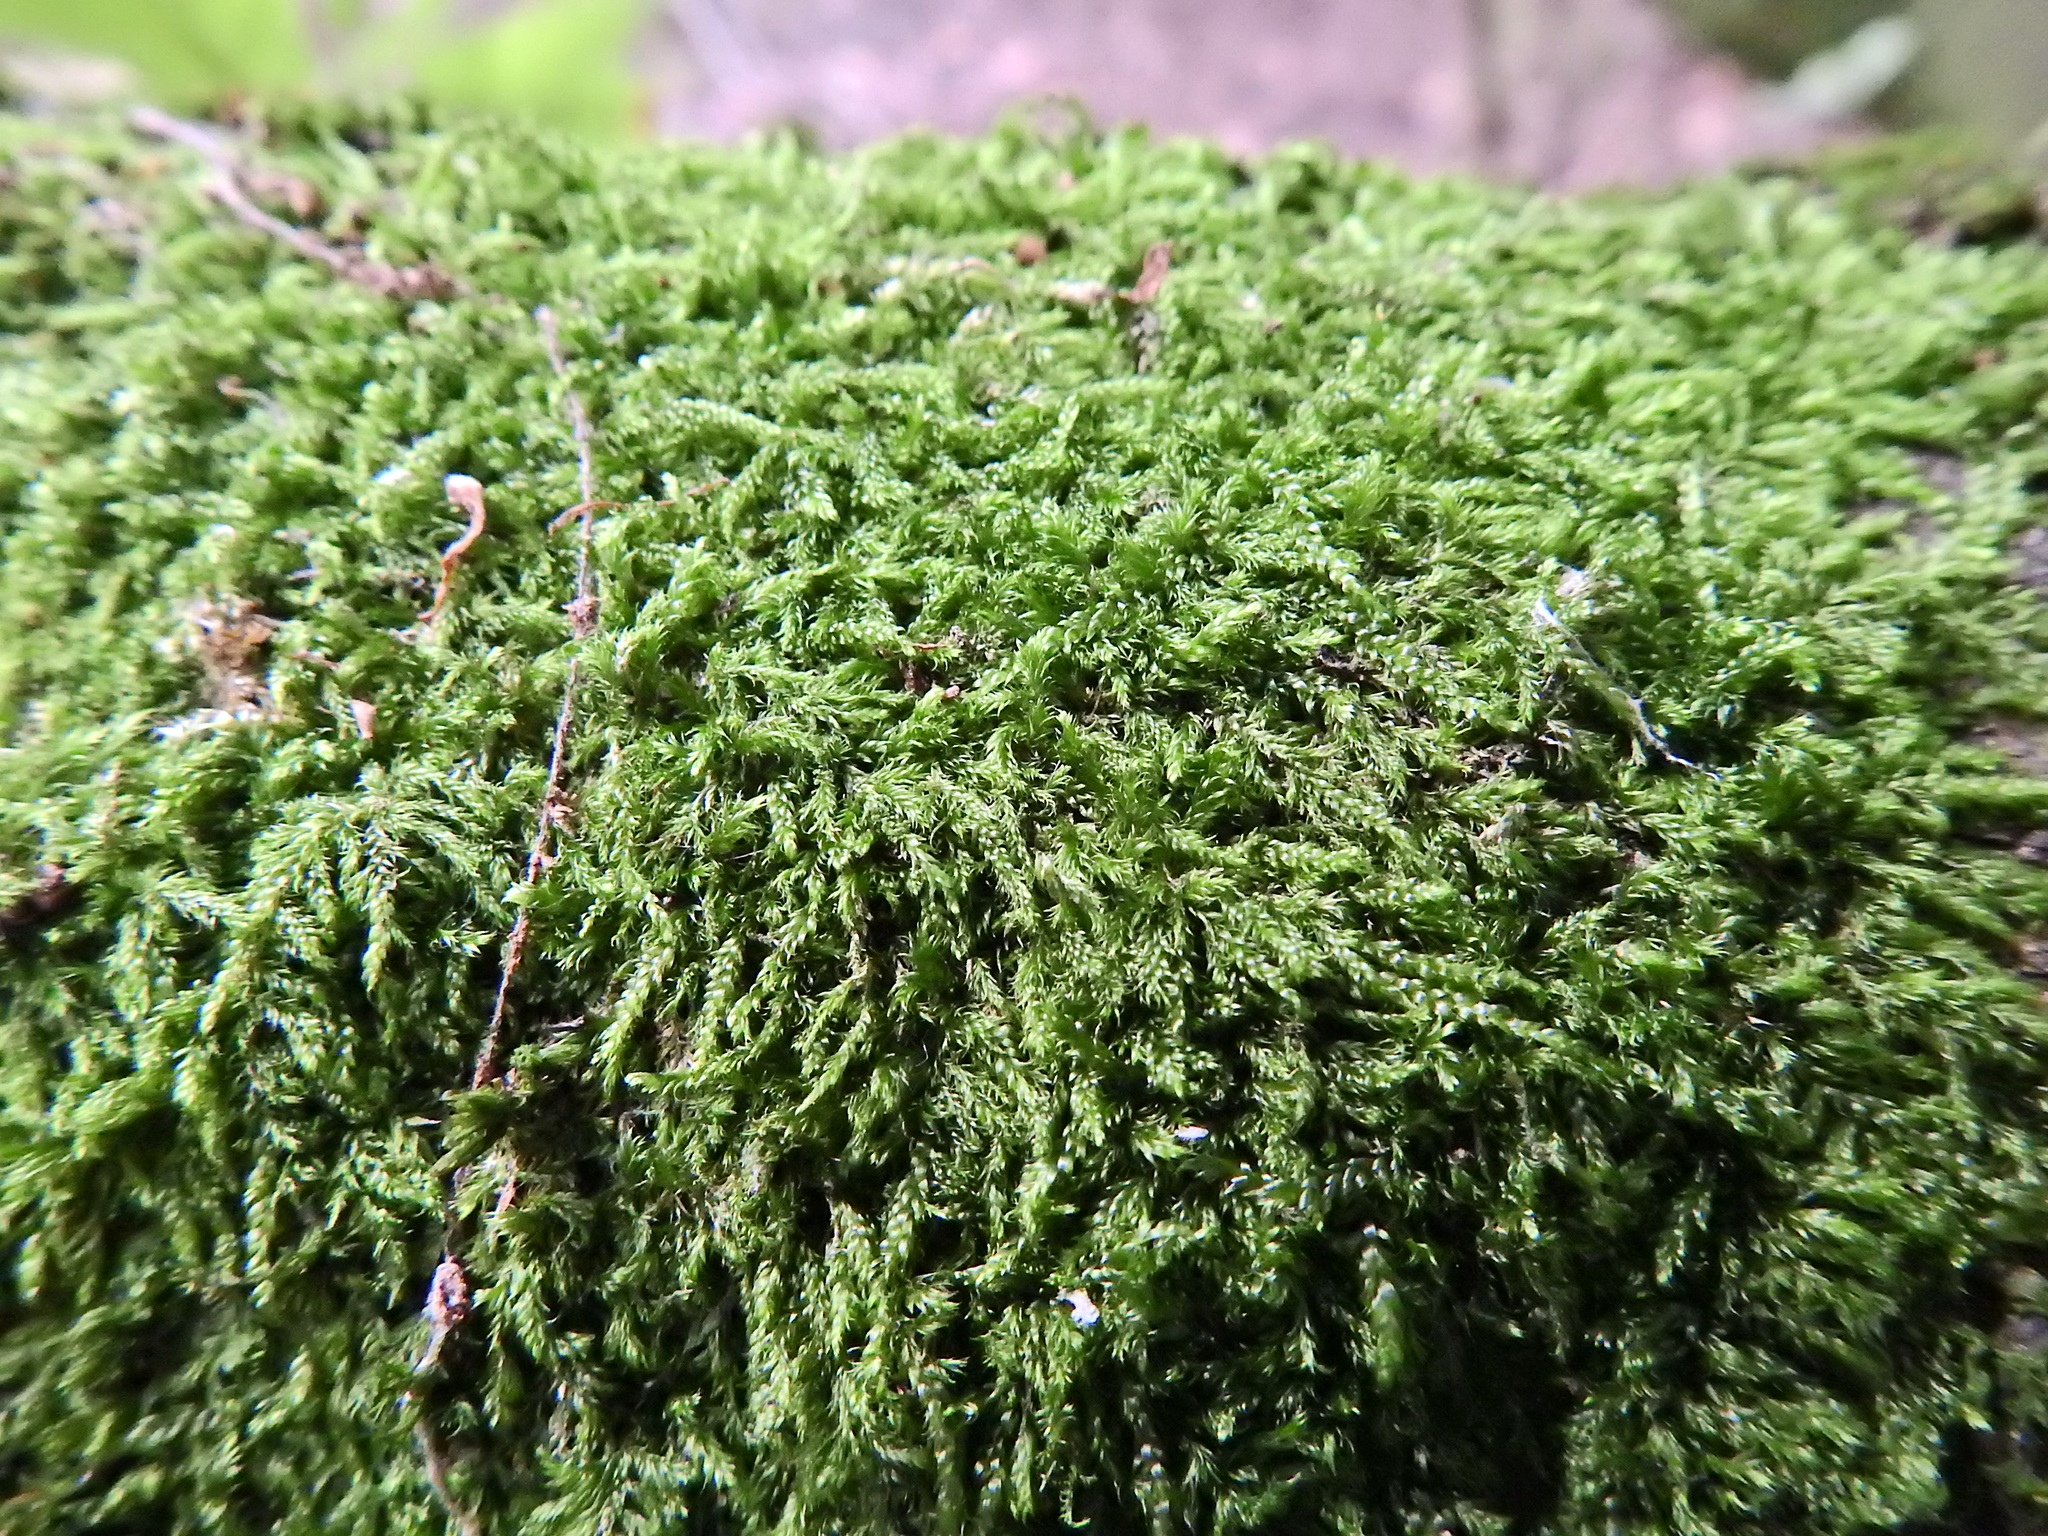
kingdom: Plantae
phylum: Bryophyta
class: Bryopsida
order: Hypnales
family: Hypnaceae
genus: Hypnum
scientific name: Hypnum cupressiforme
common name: Cypress-leaved plait-moss
